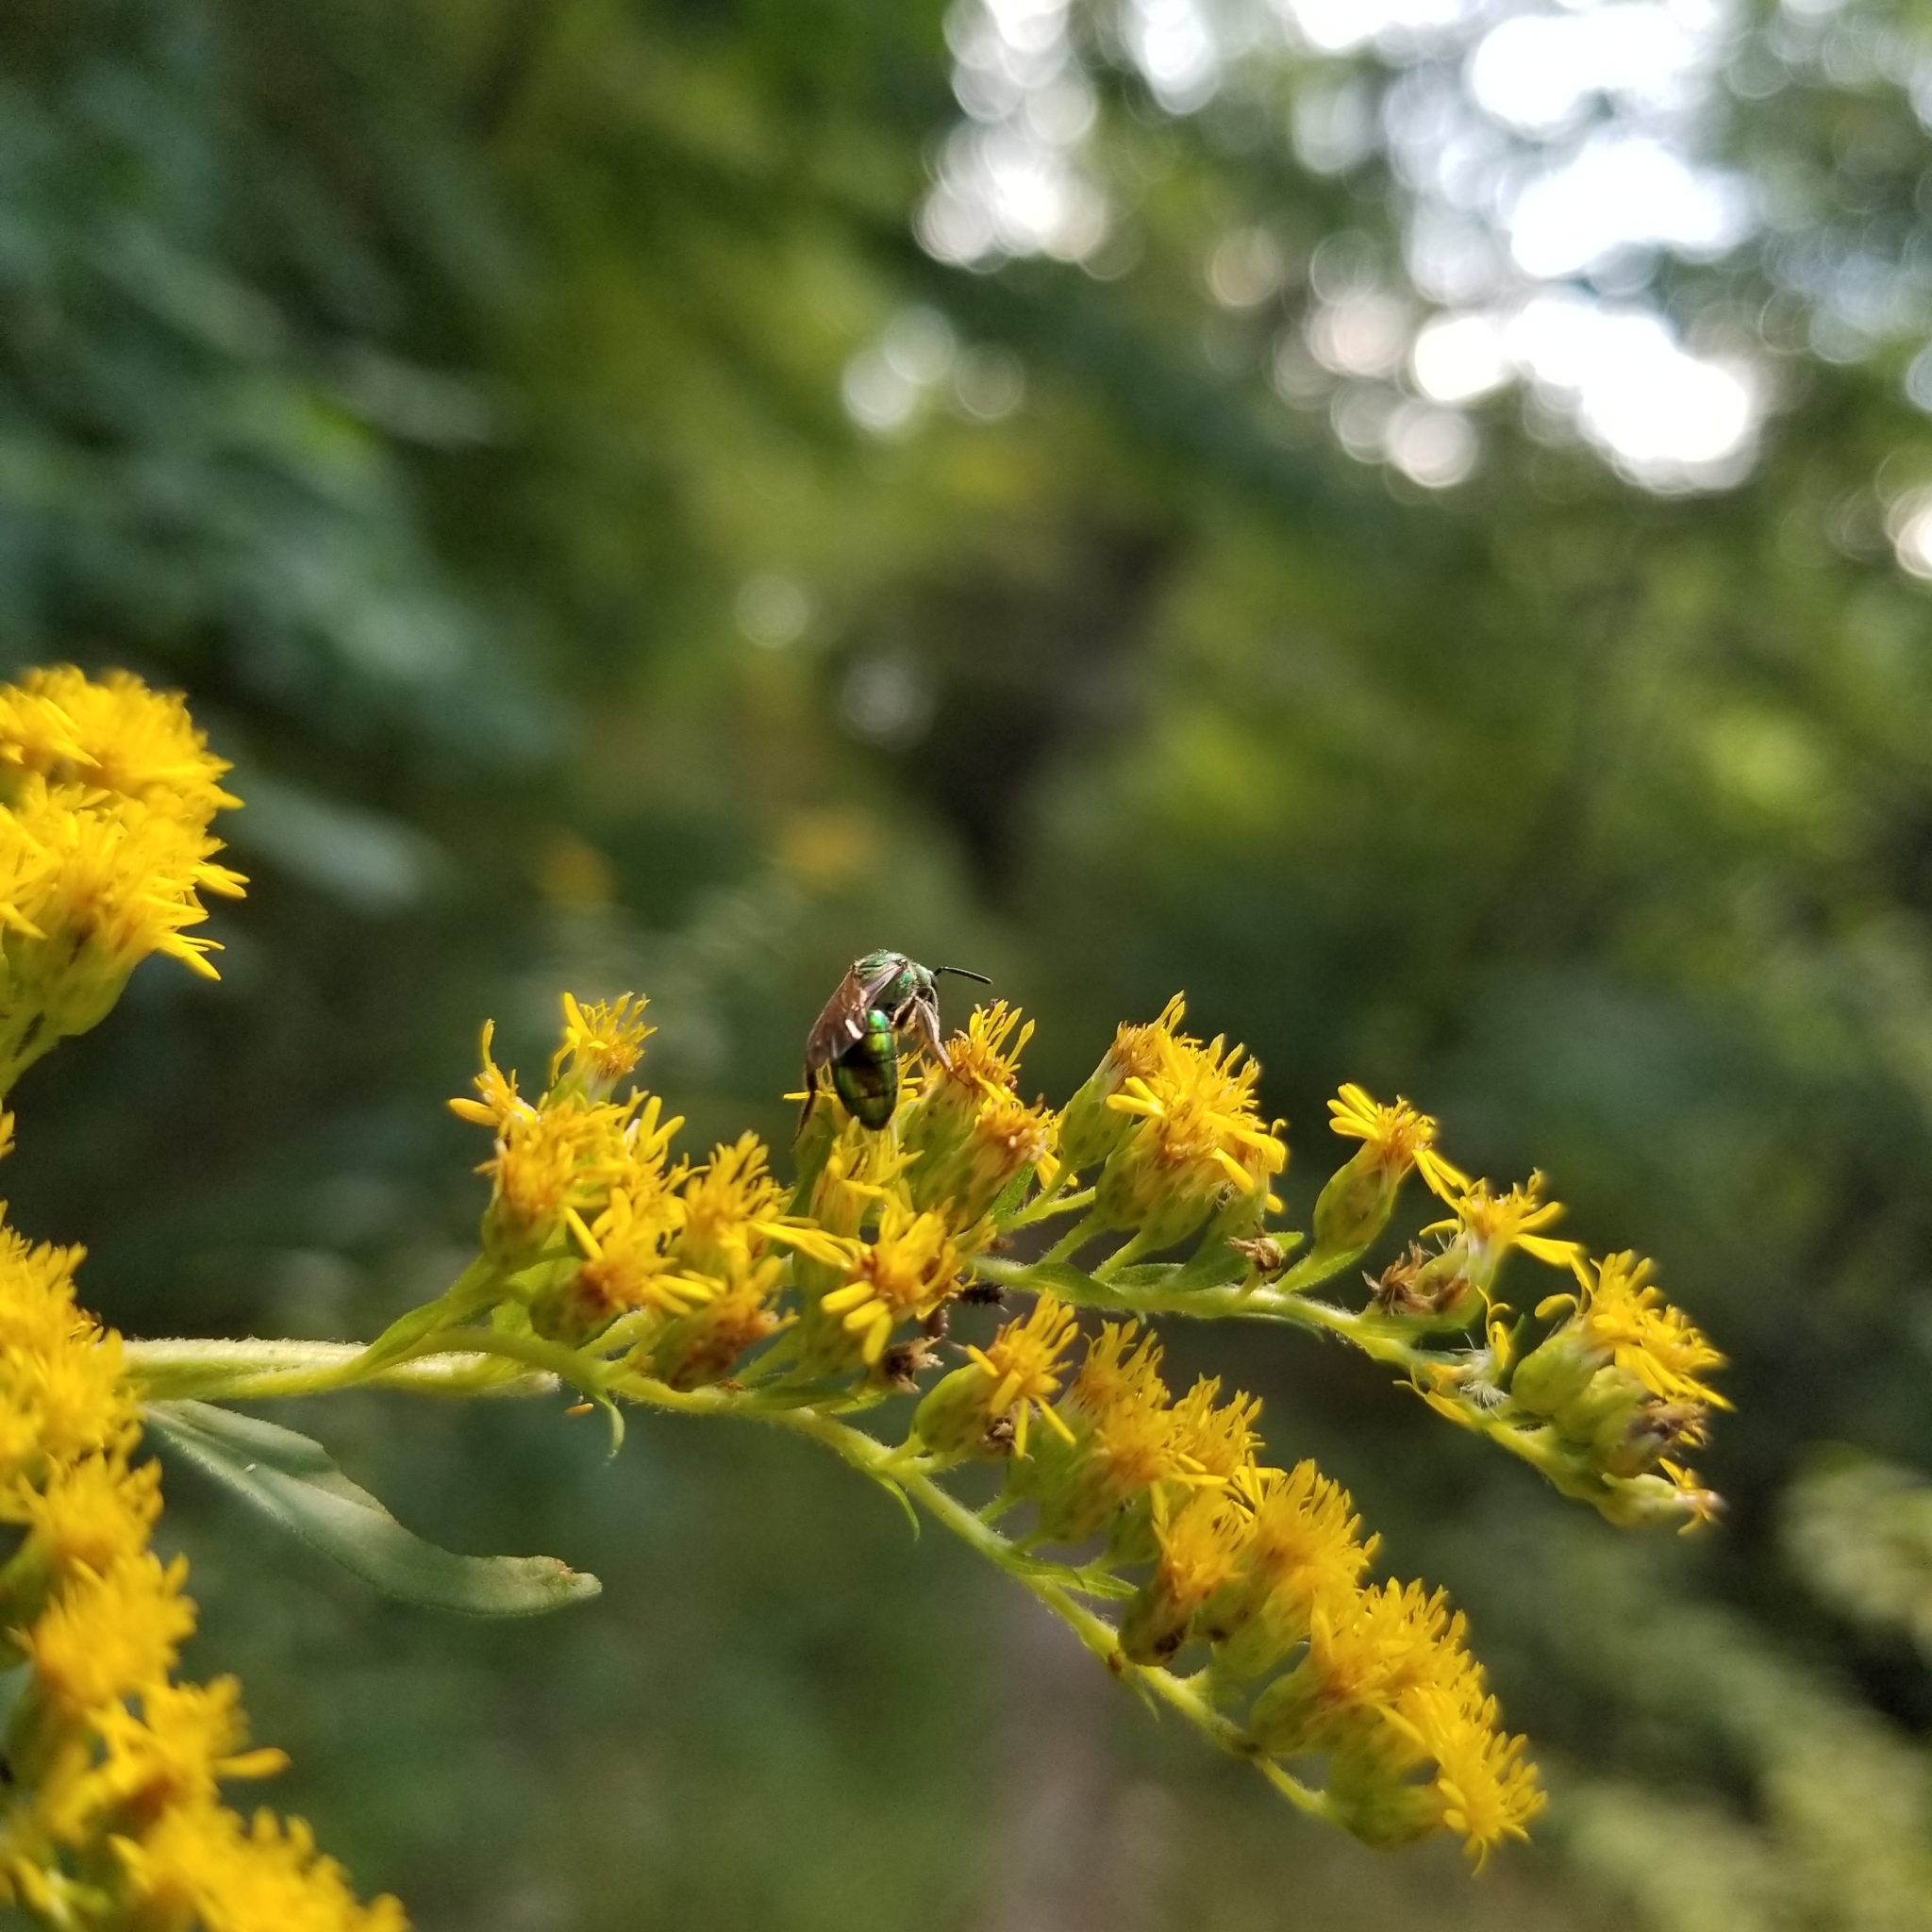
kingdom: Plantae
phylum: Tracheophyta
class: Magnoliopsida
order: Asterales
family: Asteraceae
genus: Solidago
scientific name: Solidago gigantea
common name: Giant goldenrod
